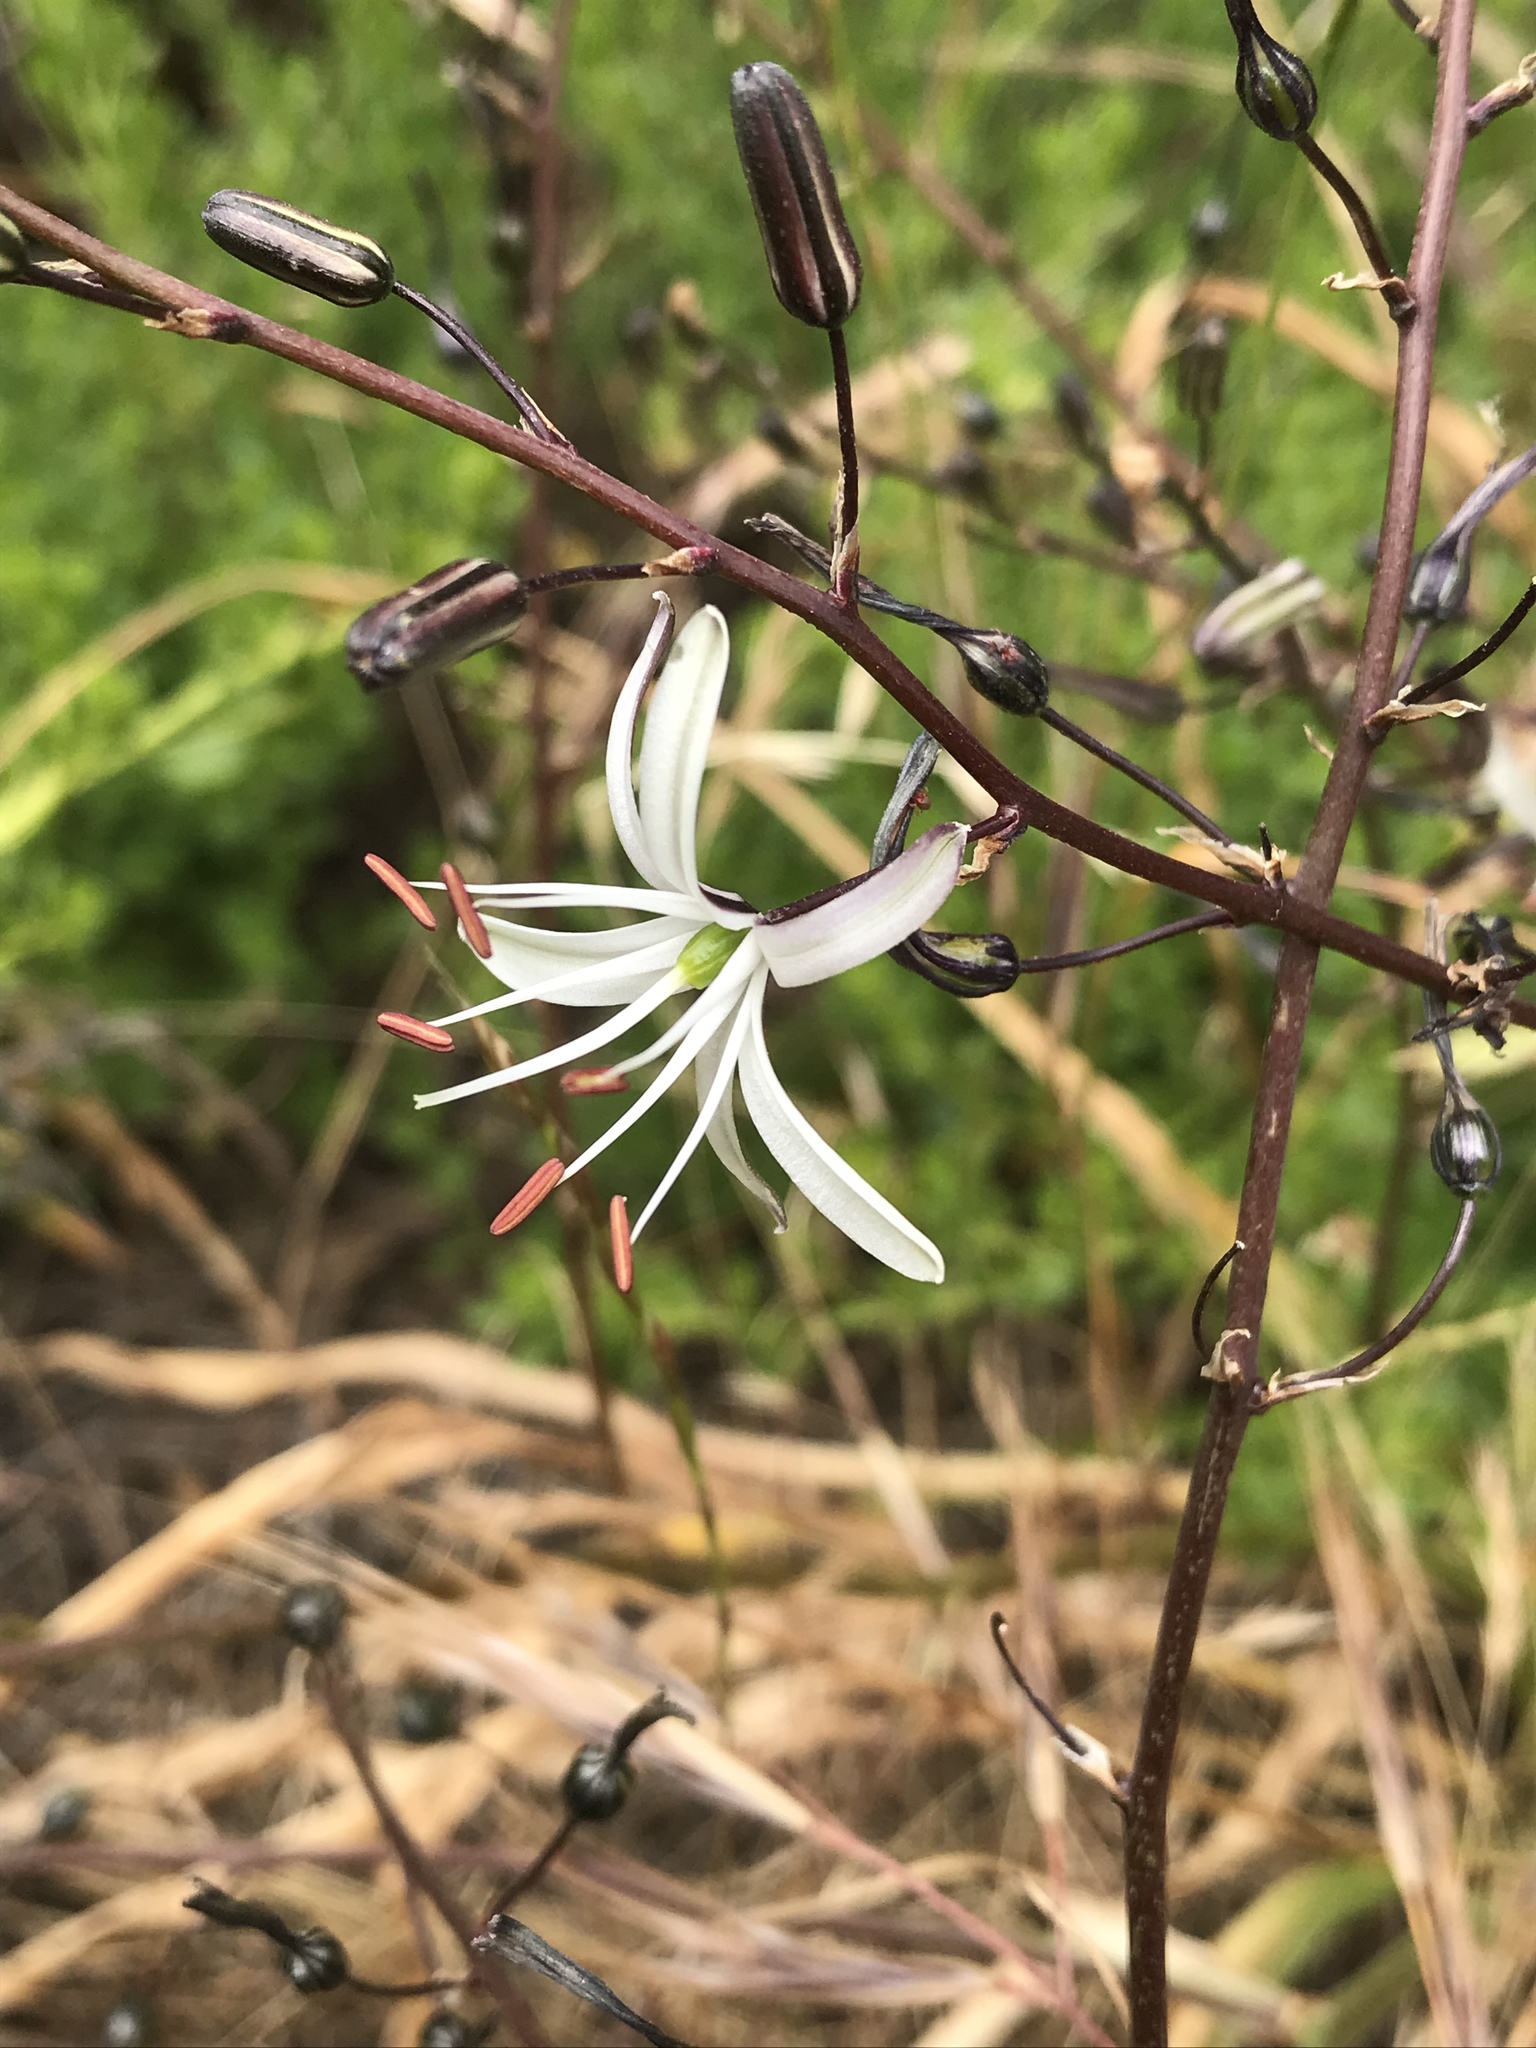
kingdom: Plantae
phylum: Tracheophyta
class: Liliopsida
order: Asparagales
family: Asparagaceae
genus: Chlorogalum
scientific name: Chlorogalum pomeridianum
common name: Amole
